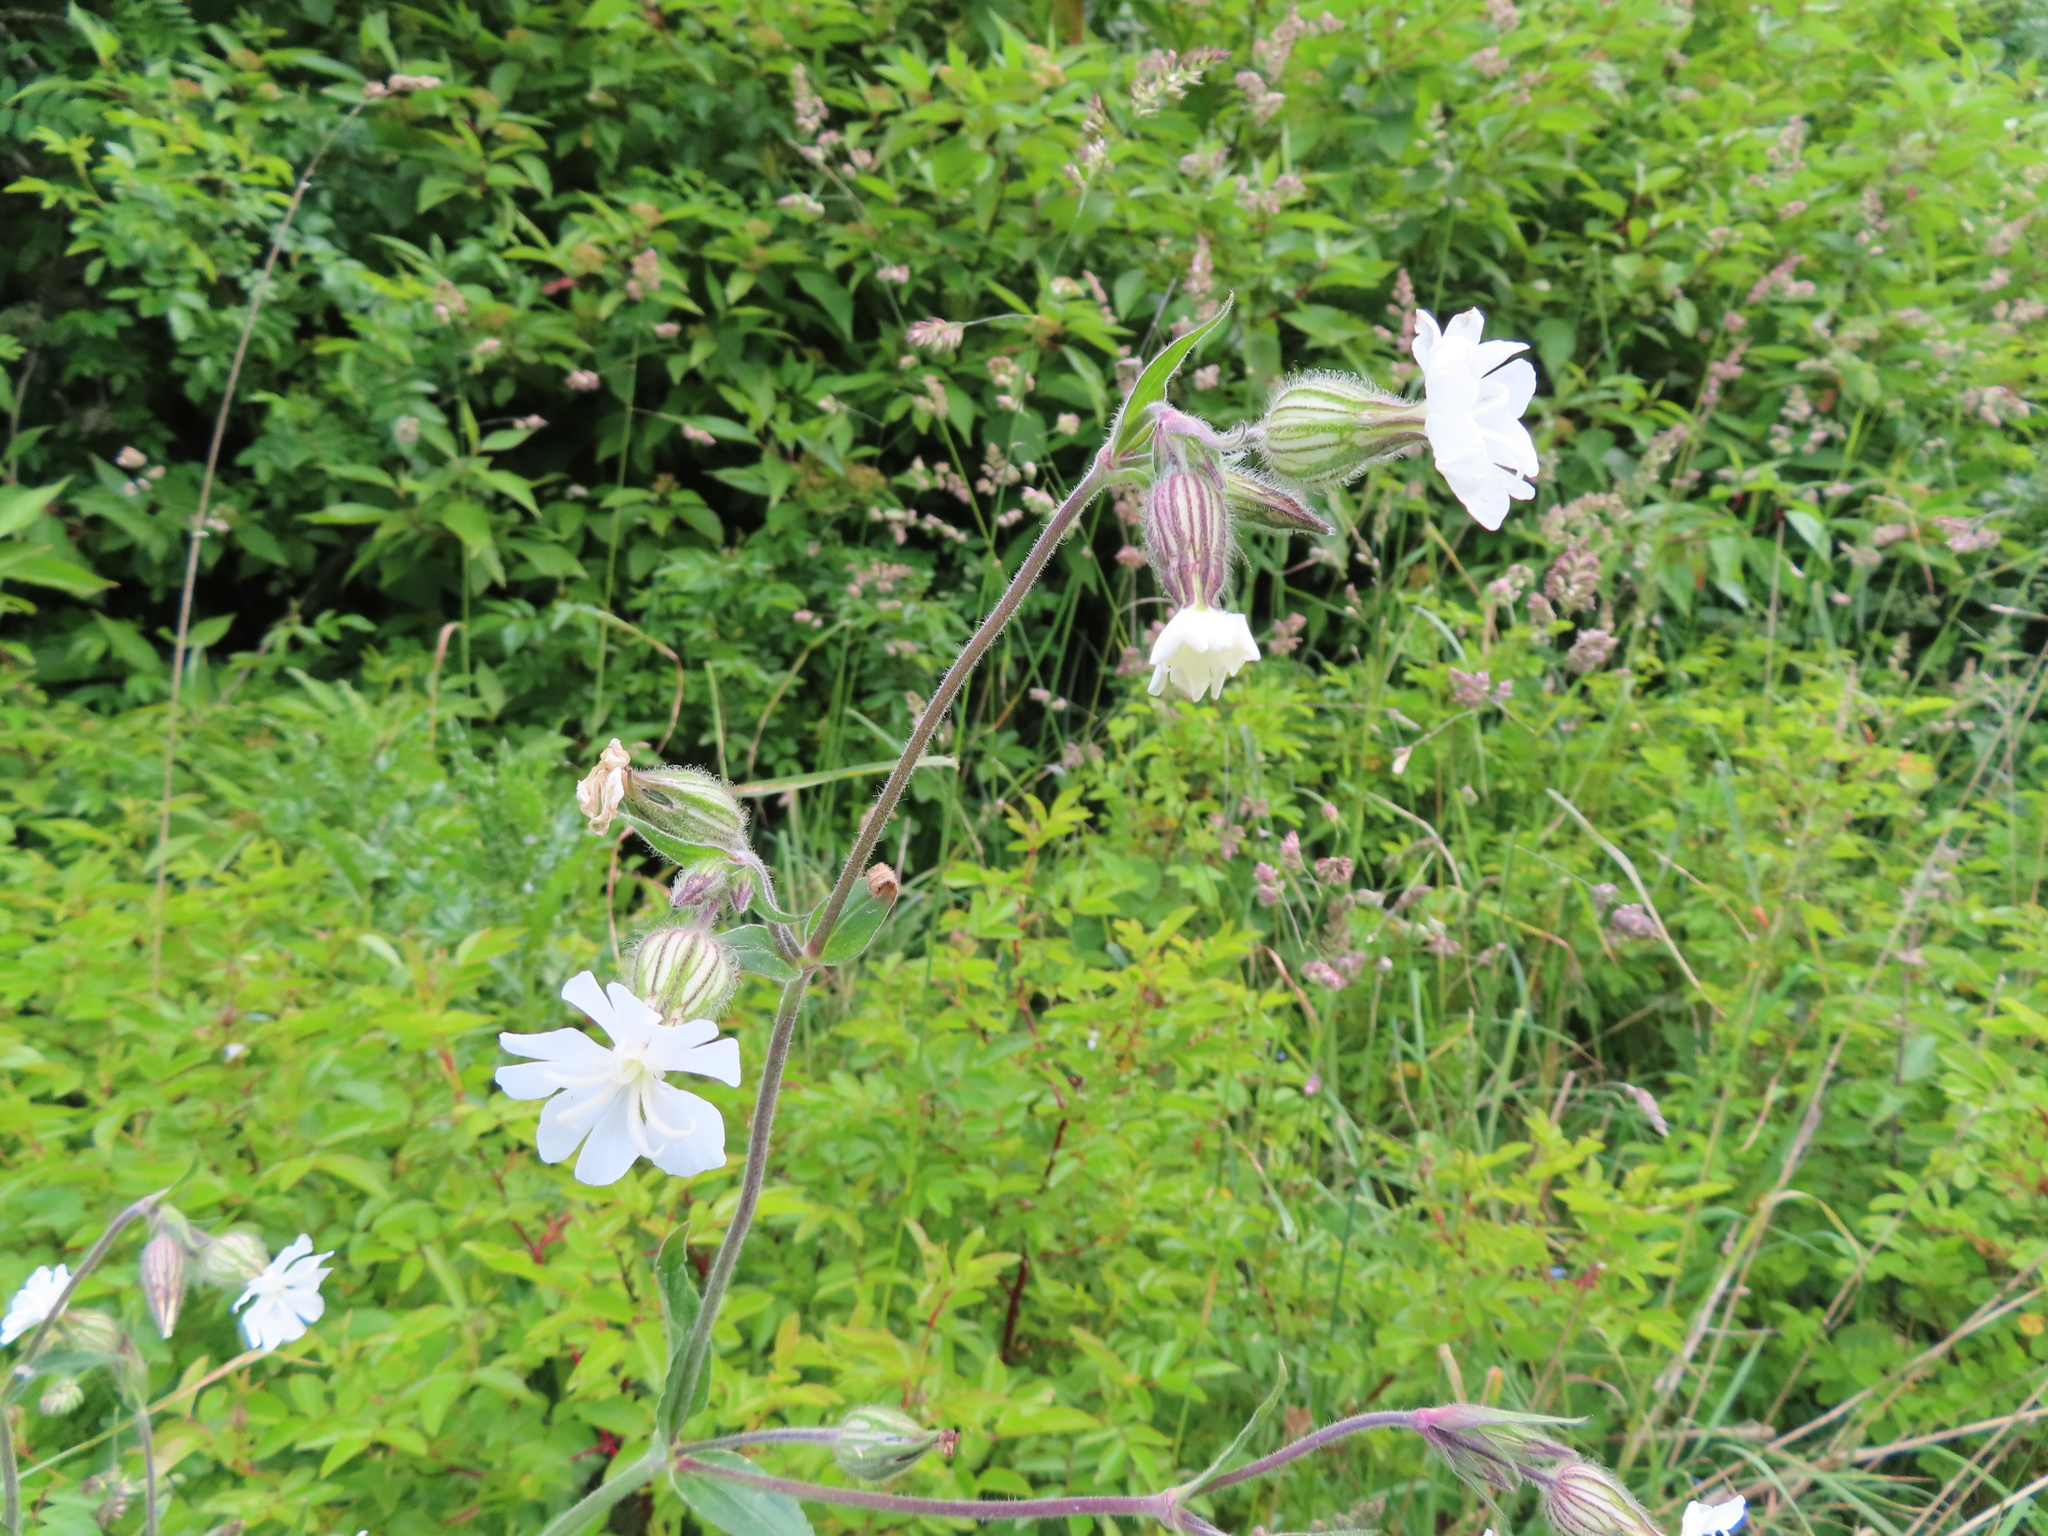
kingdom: Plantae
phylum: Tracheophyta
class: Magnoliopsida
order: Caryophyllales
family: Caryophyllaceae
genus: Silene
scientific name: Silene latifolia
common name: White campion
